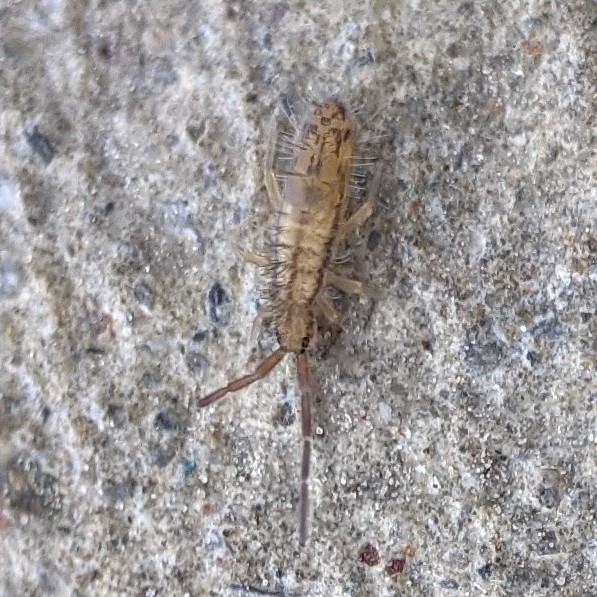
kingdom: Animalia
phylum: Arthropoda
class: Collembola
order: Entomobryomorpha
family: Entomobryidae
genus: Homidia
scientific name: Homidia socia
